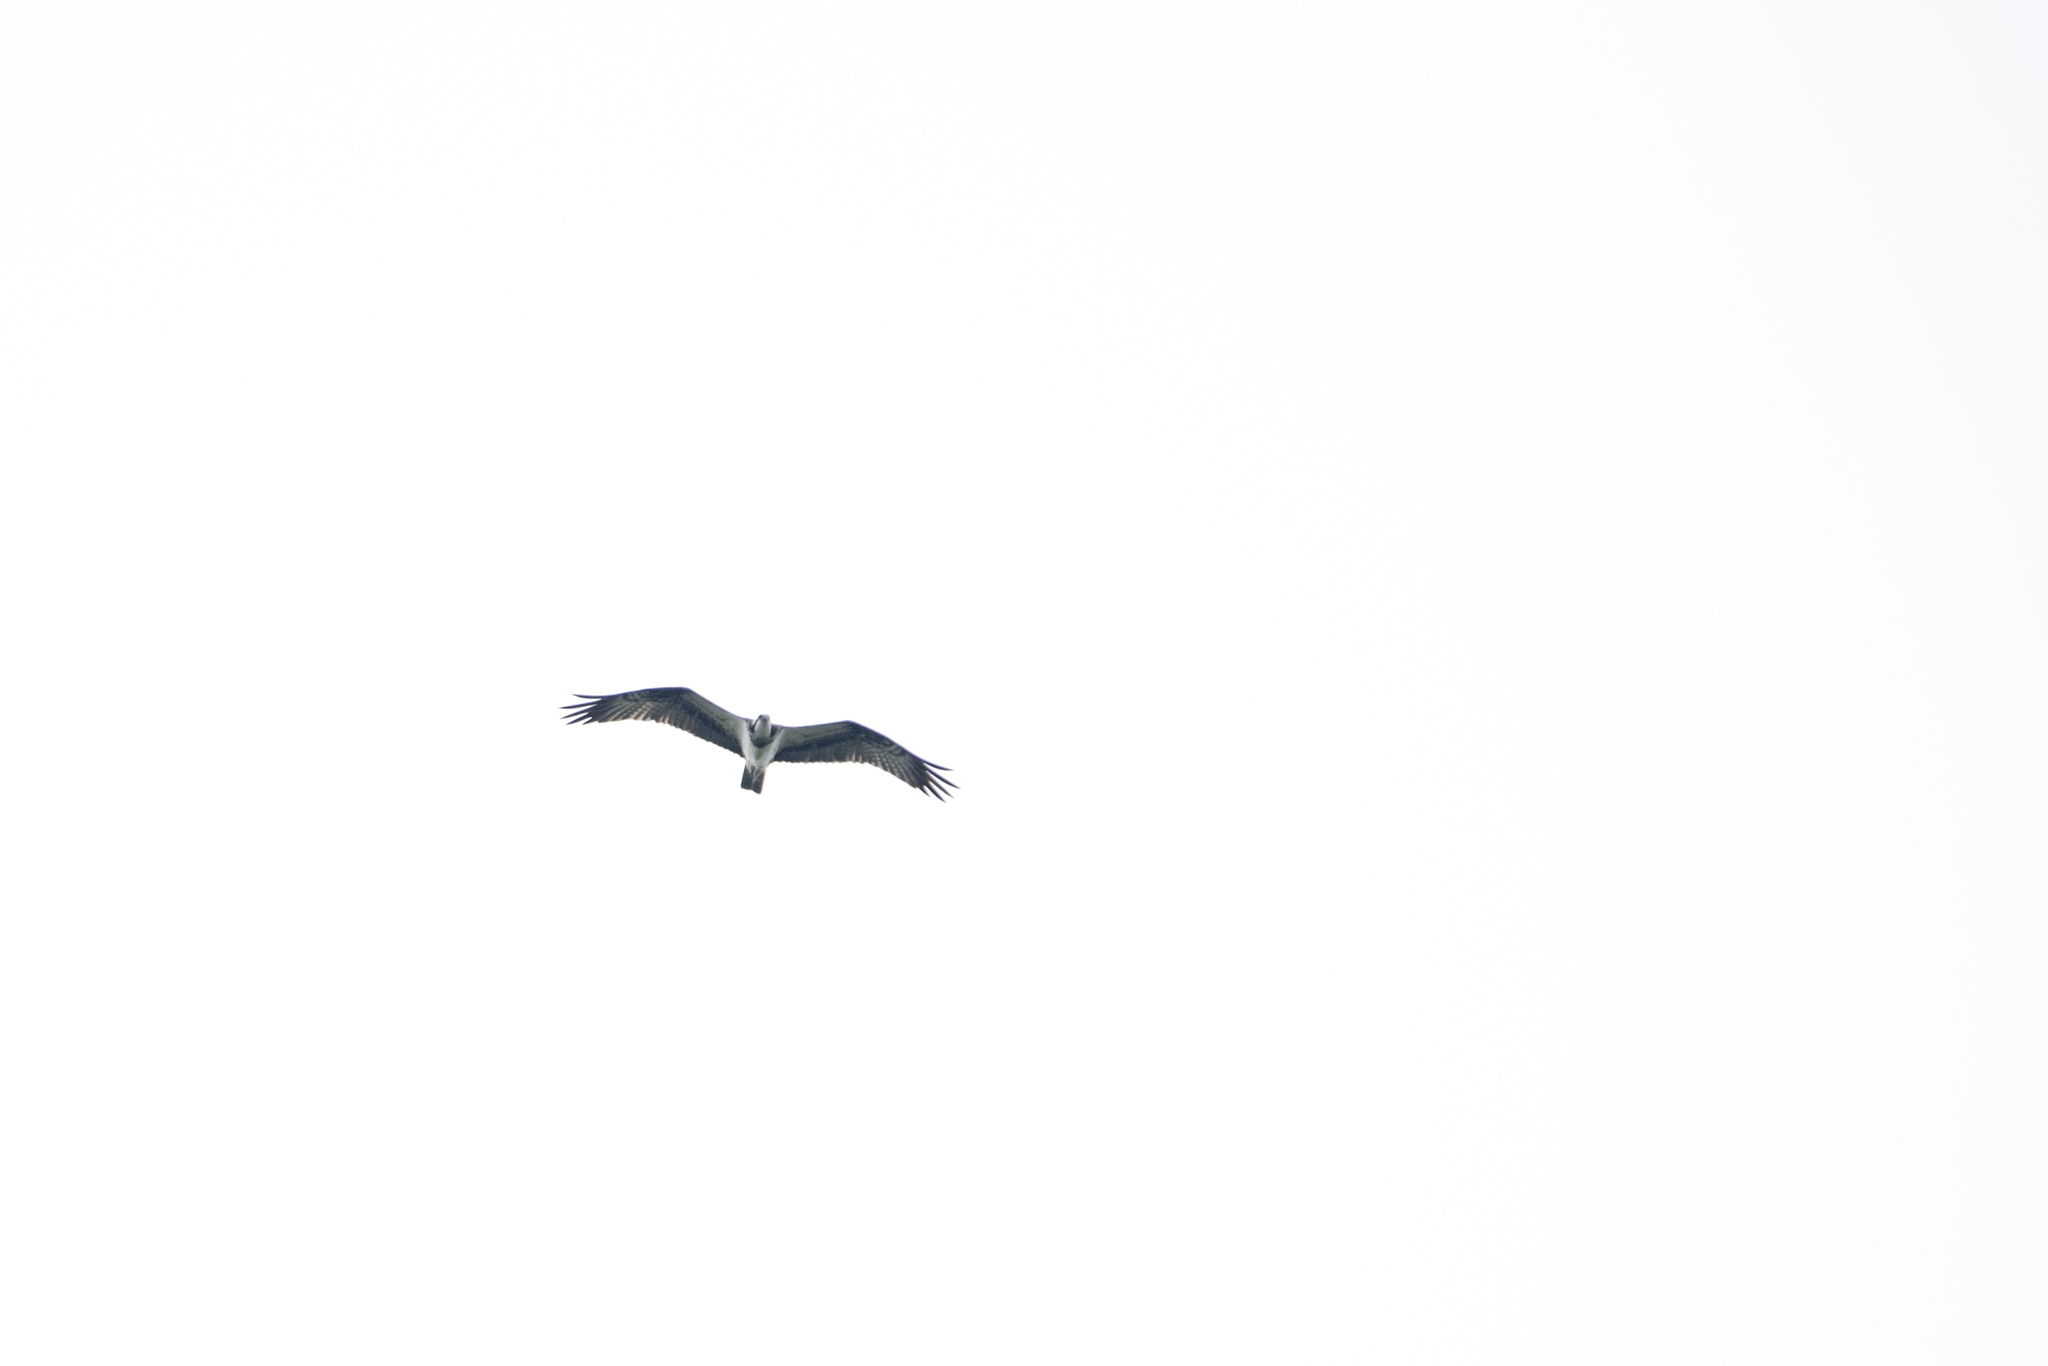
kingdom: Animalia
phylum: Chordata
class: Aves
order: Accipitriformes
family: Pandionidae
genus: Pandion
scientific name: Pandion haliaetus
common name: Osprey
